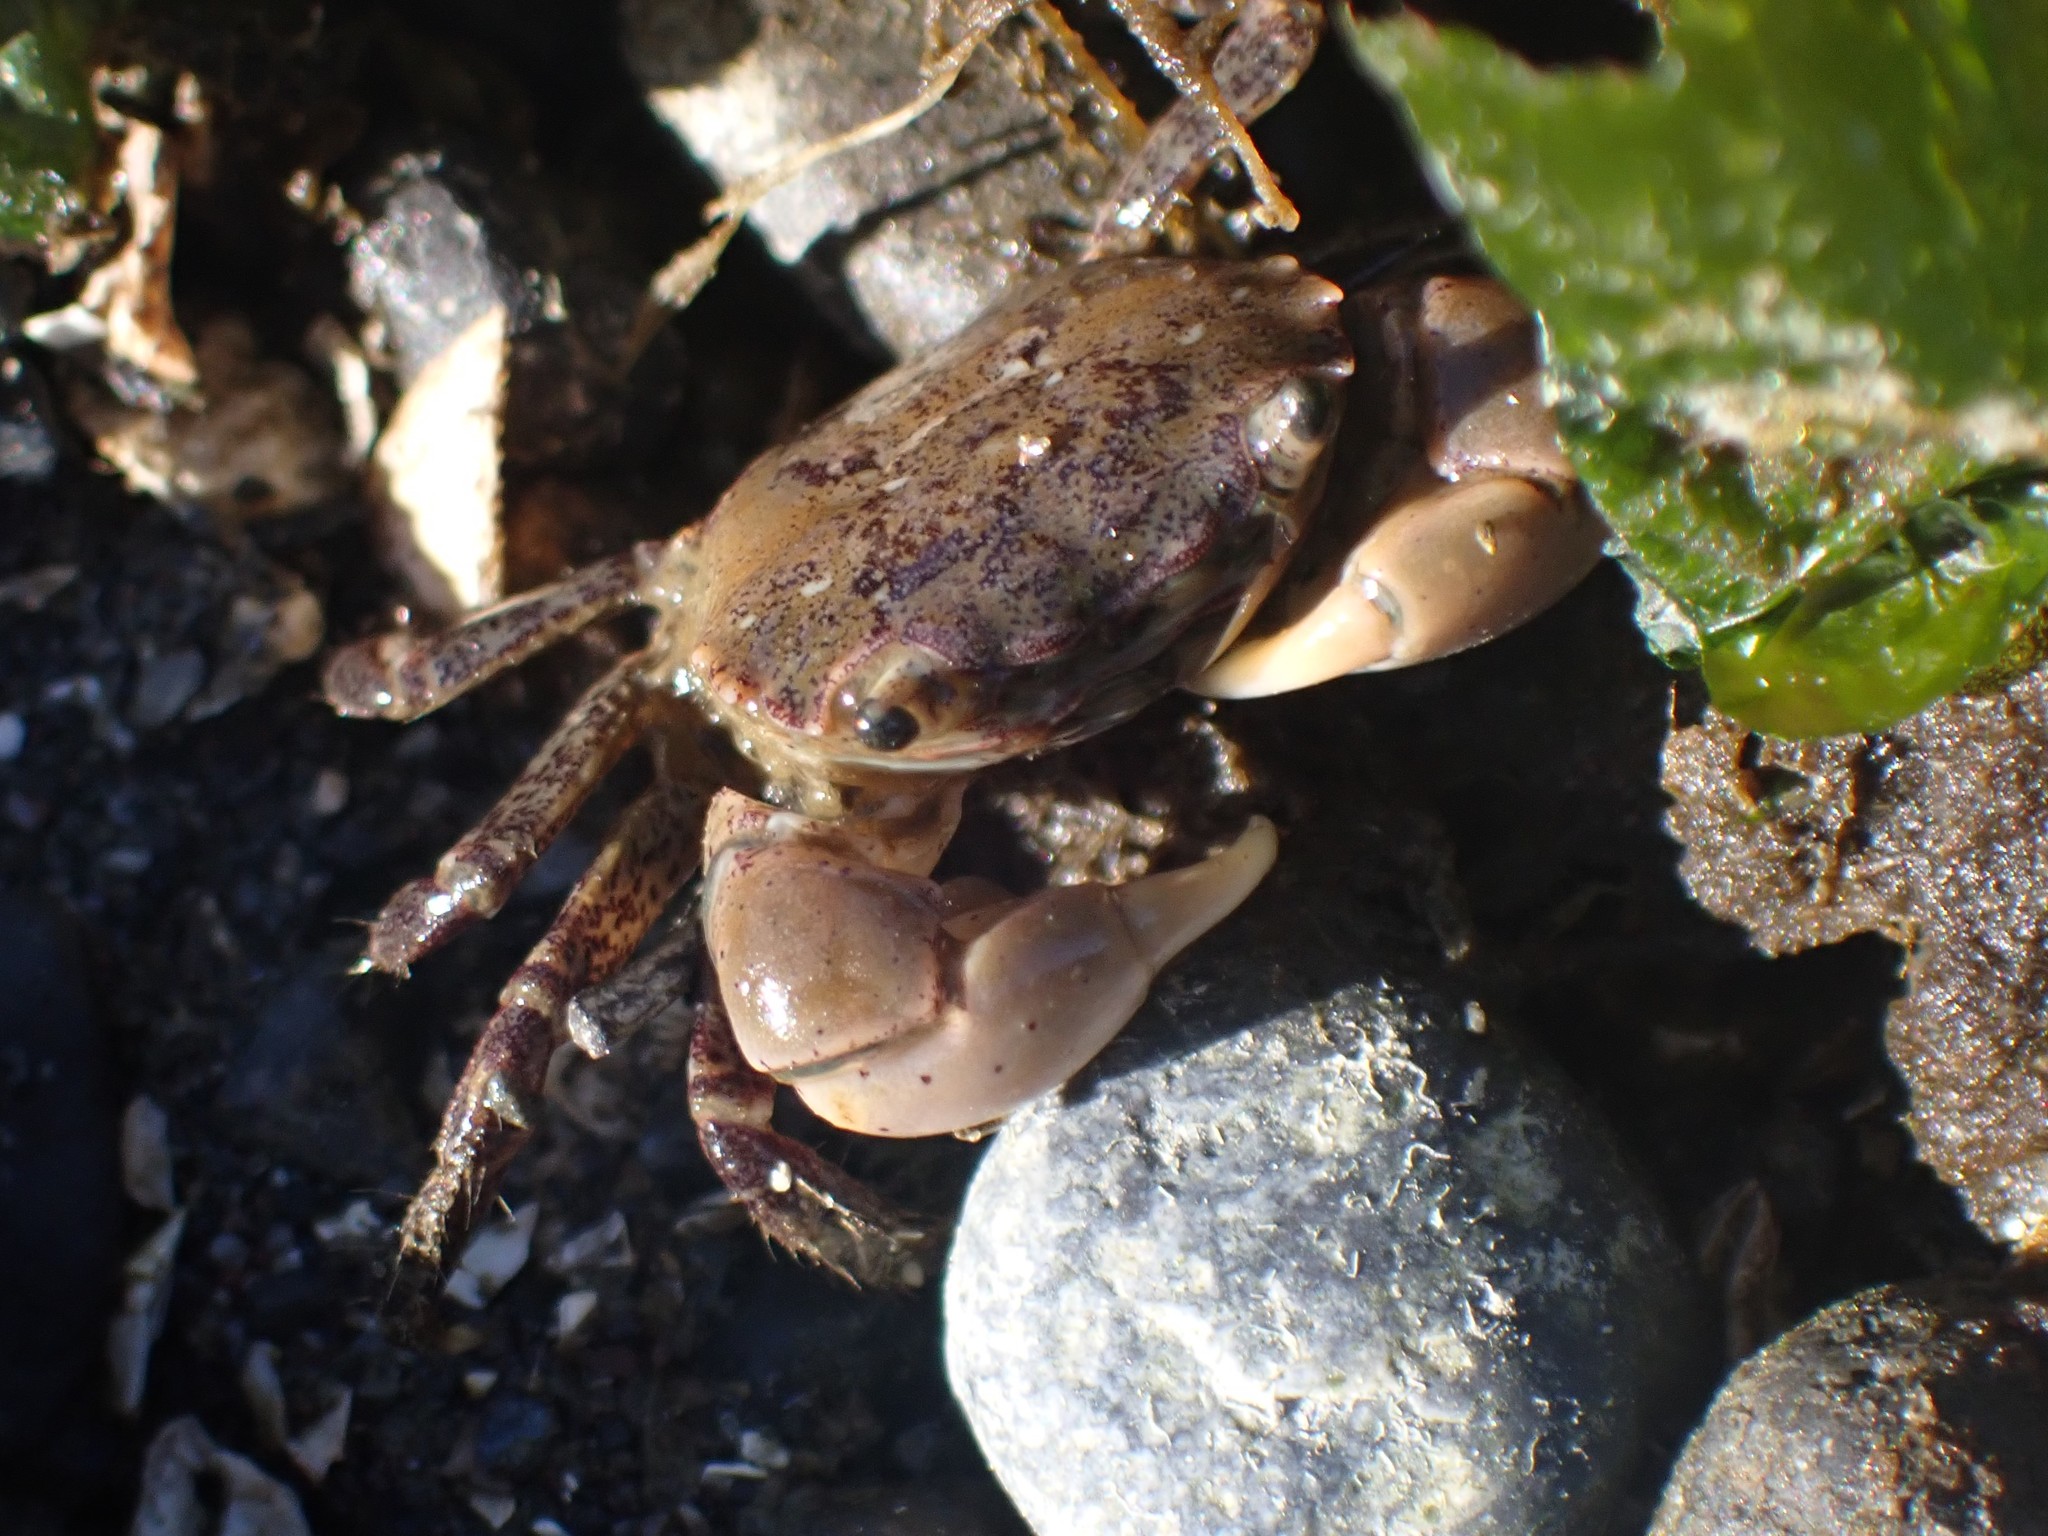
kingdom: Animalia
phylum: Arthropoda
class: Malacostraca
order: Decapoda
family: Varunidae
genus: Hemigrapsus
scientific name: Hemigrapsus oregonensis
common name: Yellow shore crab
